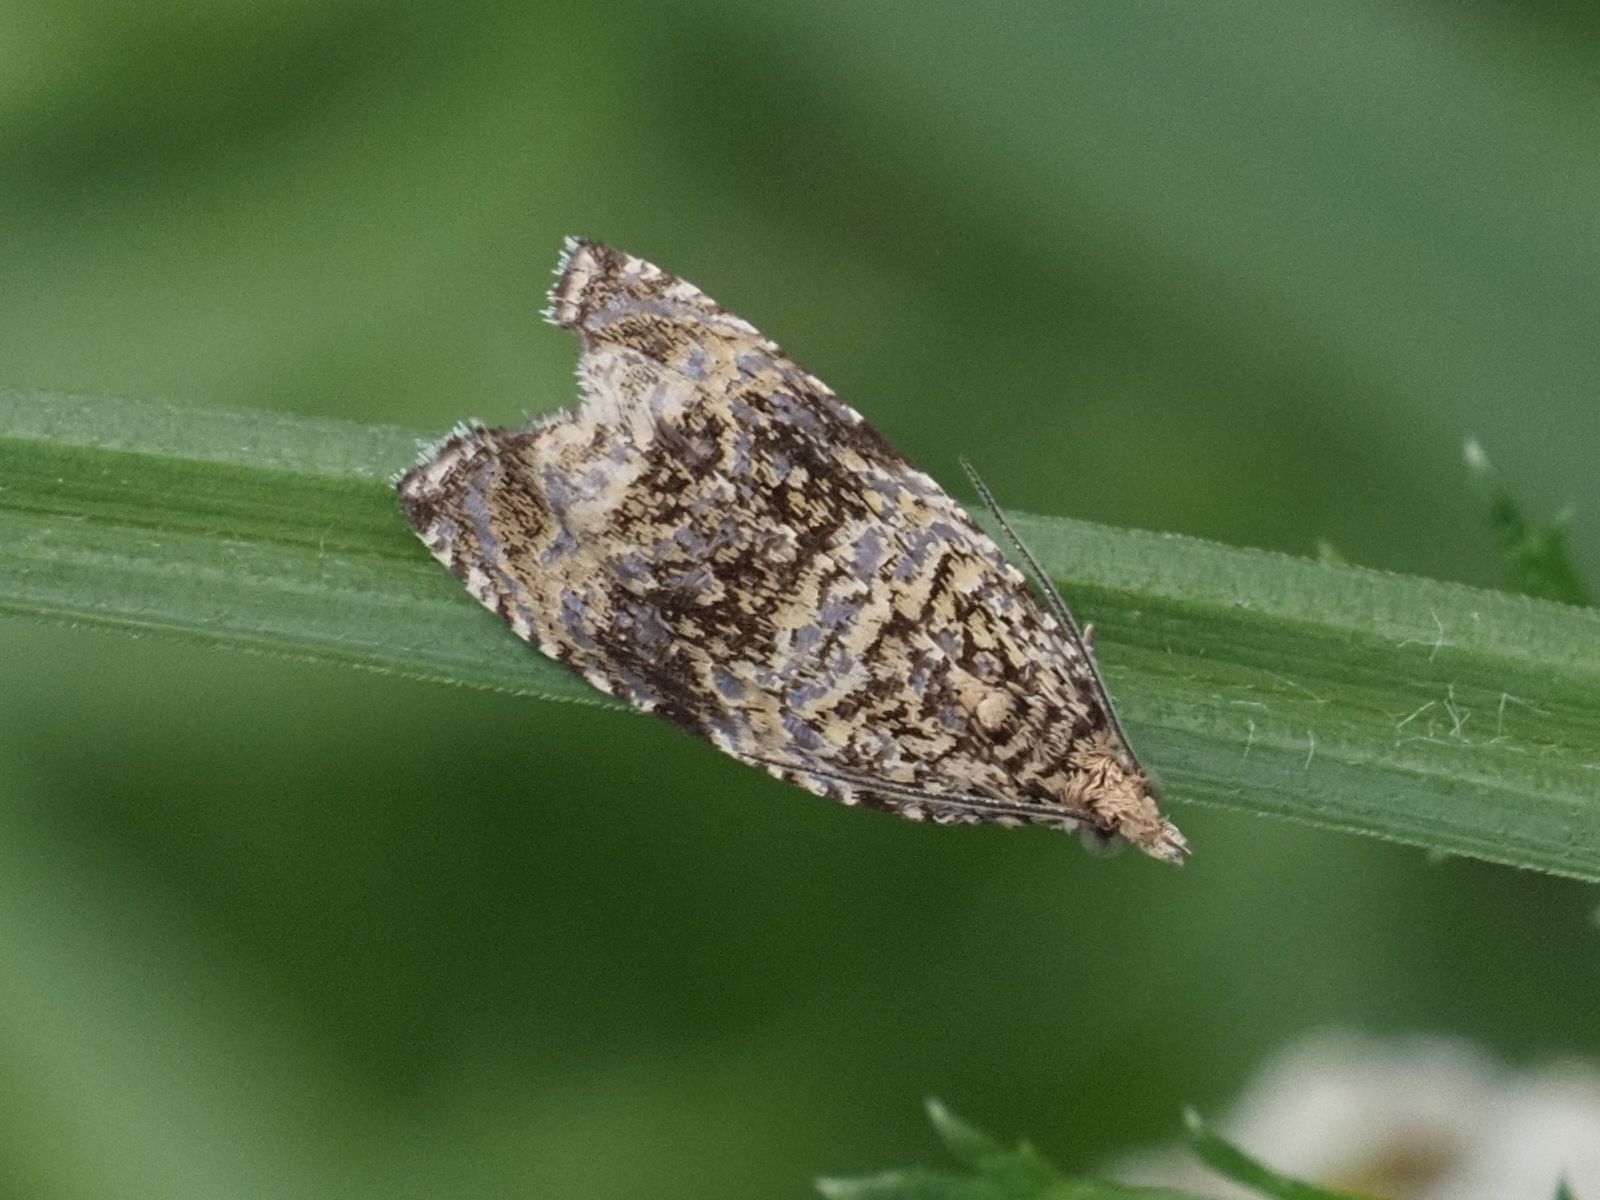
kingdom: Animalia
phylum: Arthropoda
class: Insecta
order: Lepidoptera
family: Tortricidae
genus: Syricoris
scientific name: Syricoris lacunana
